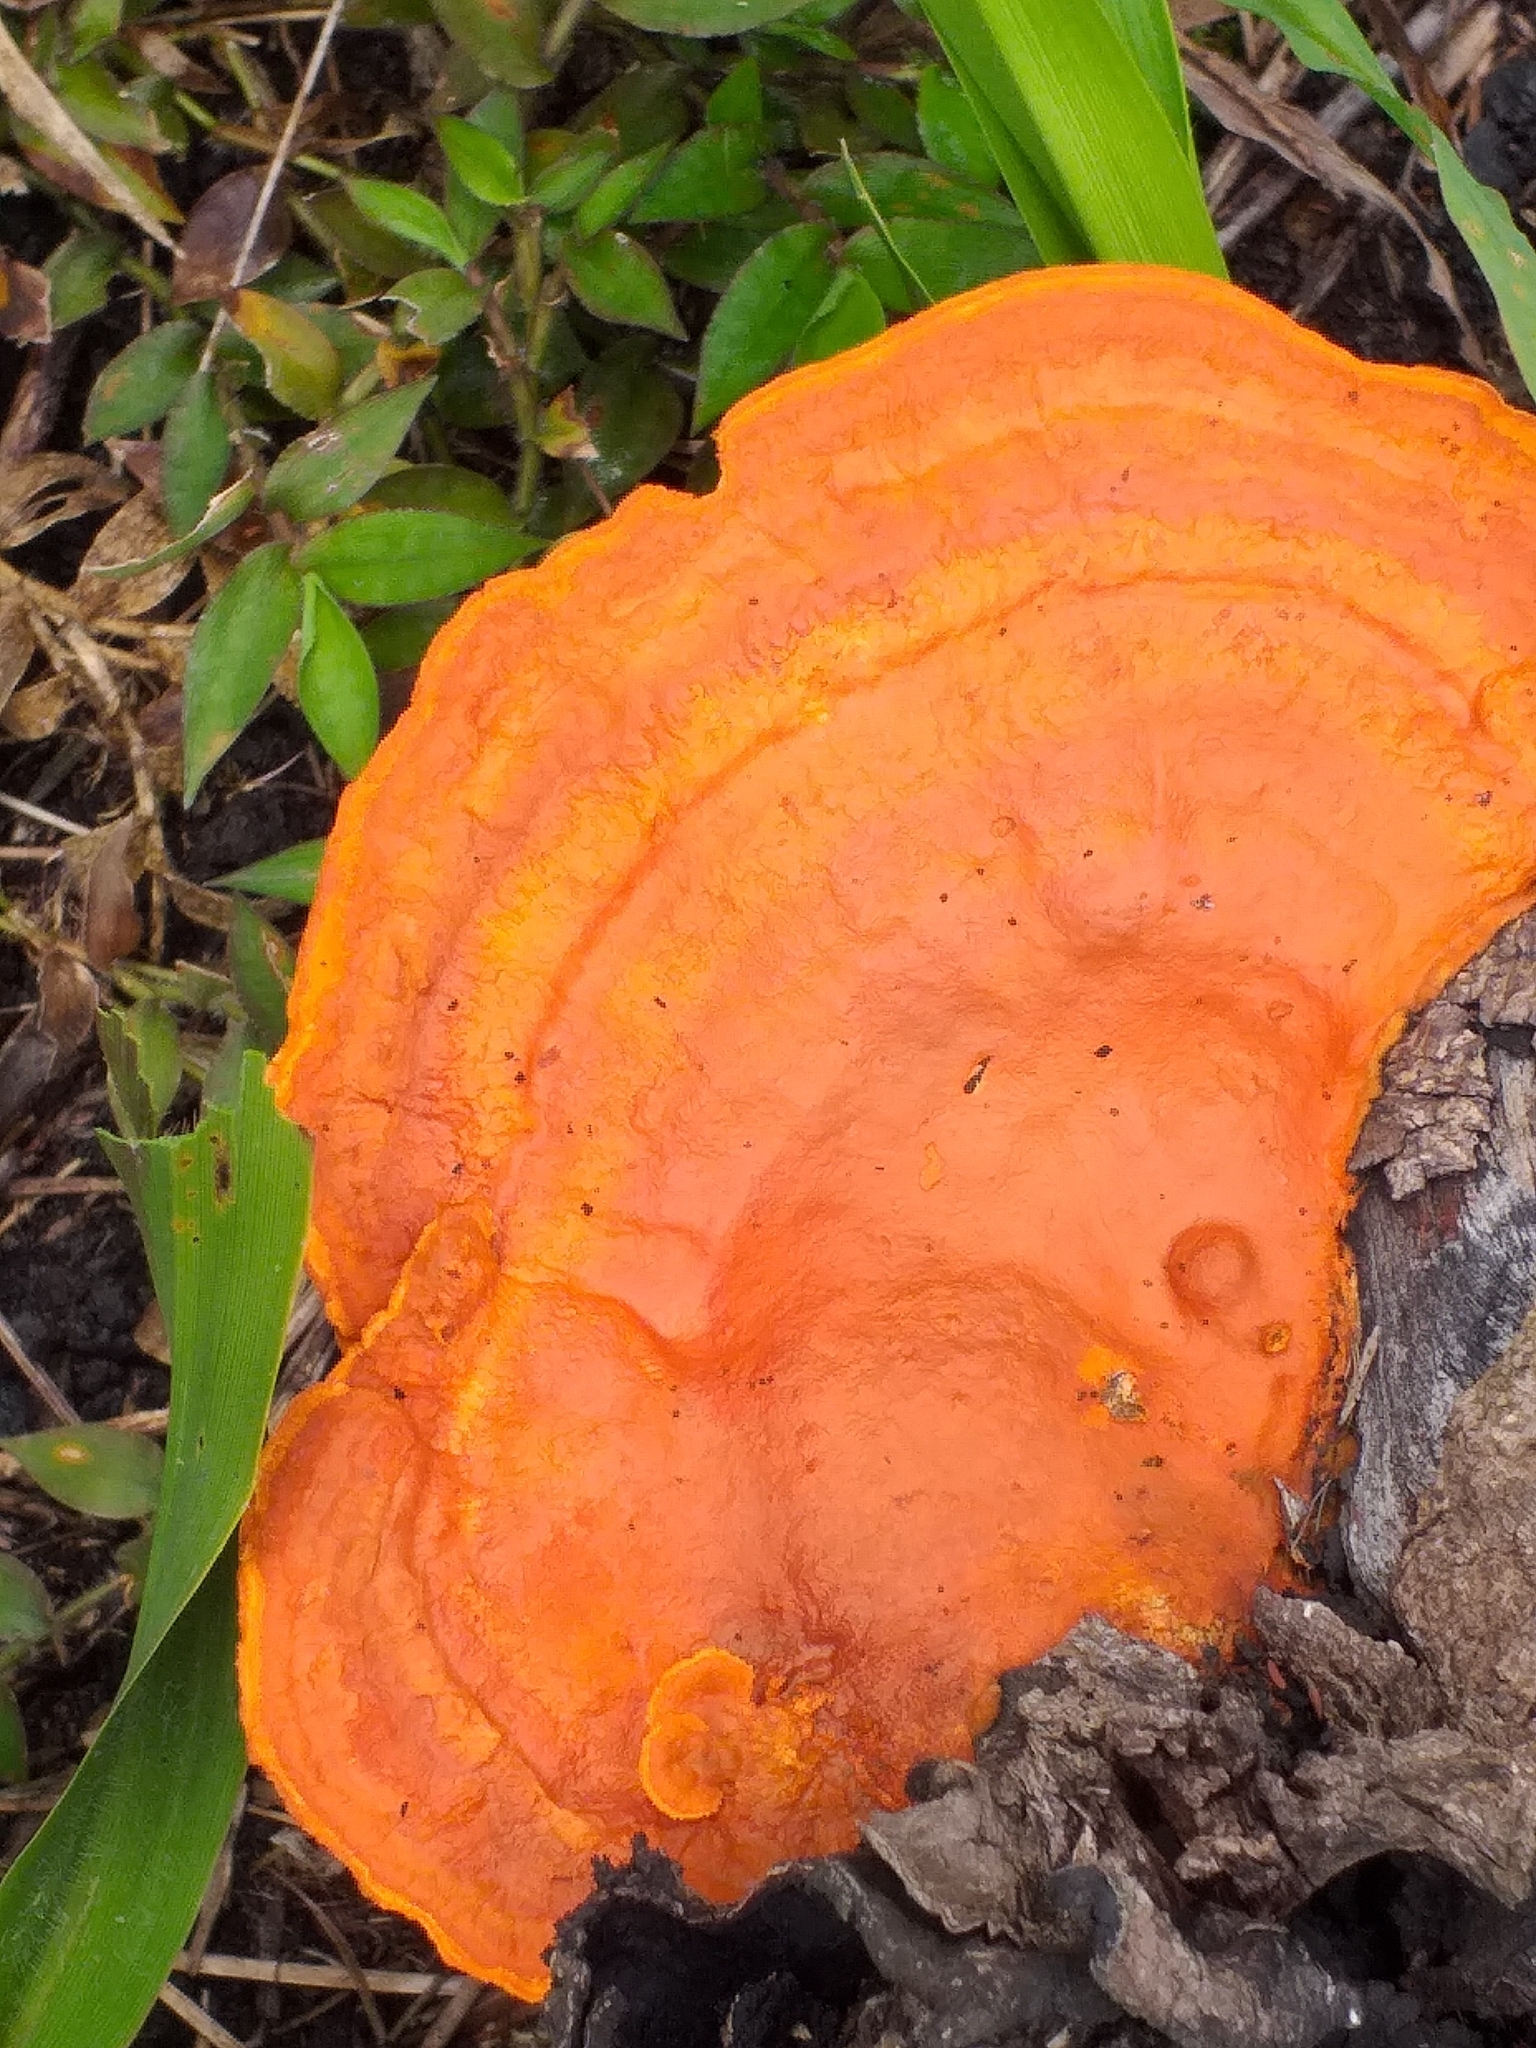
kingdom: Fungi
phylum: Basidiomycota
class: Agaricomycetes
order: Polyporales
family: Polyporaceae
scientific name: Polyporaceae
